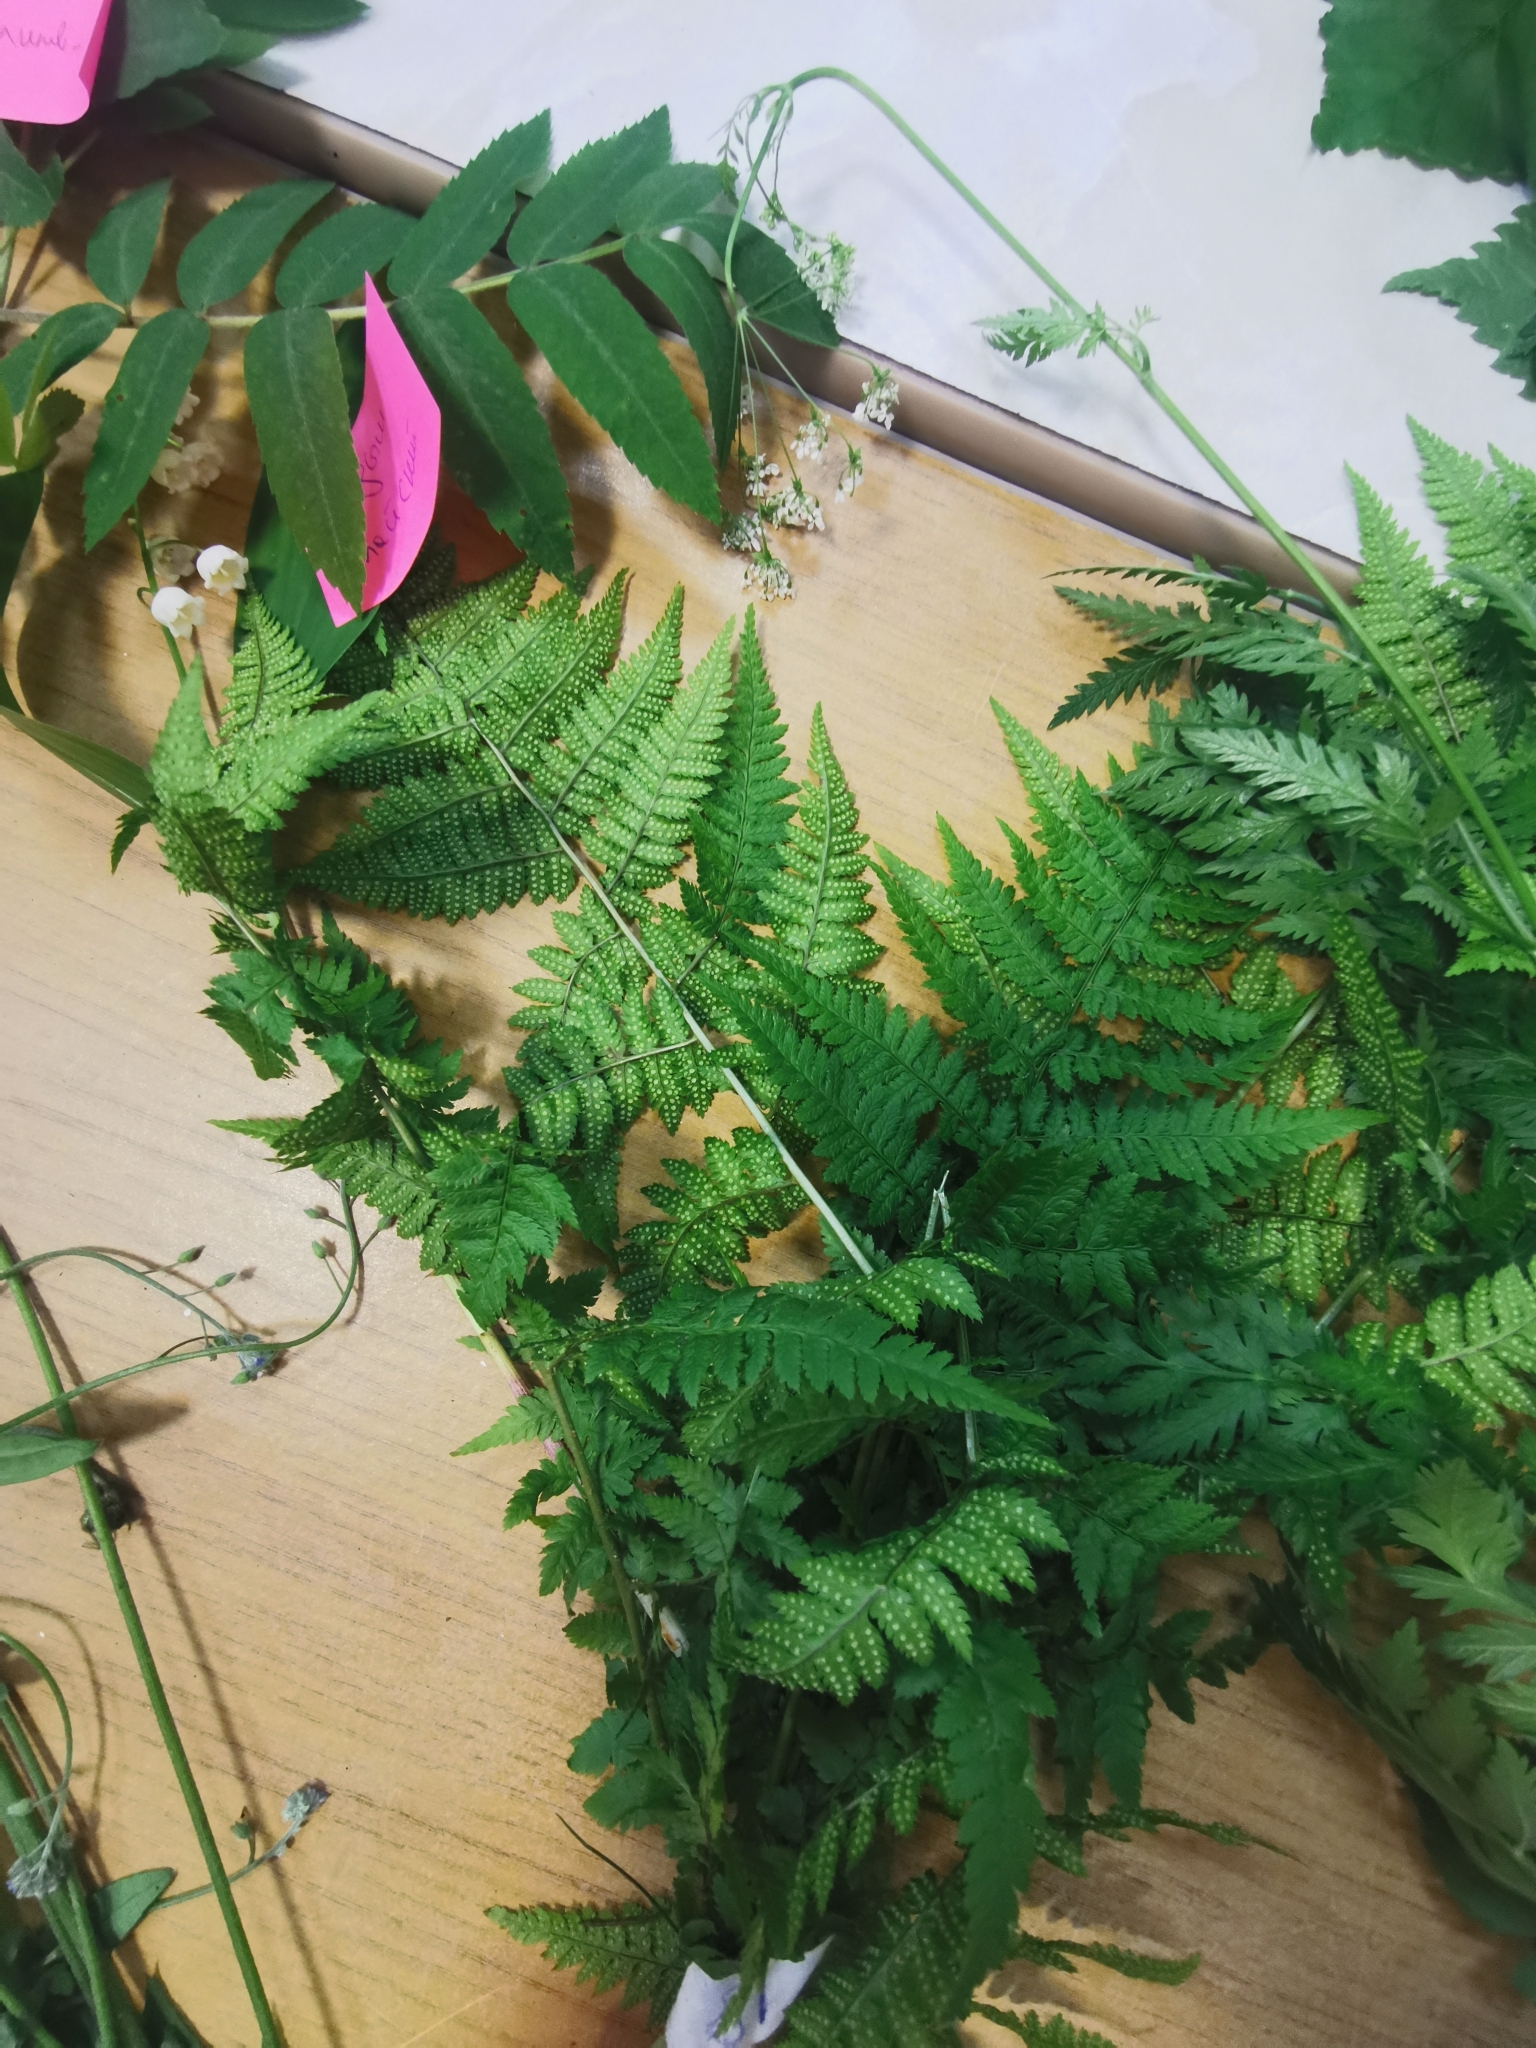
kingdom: Plantae
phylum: Tracheophyta
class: Polypodiopsida
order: Polypodiales
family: Dryopteridaceae
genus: Dryopteris
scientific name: Dryopteris carthusiana
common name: Narrow buckler-fern
